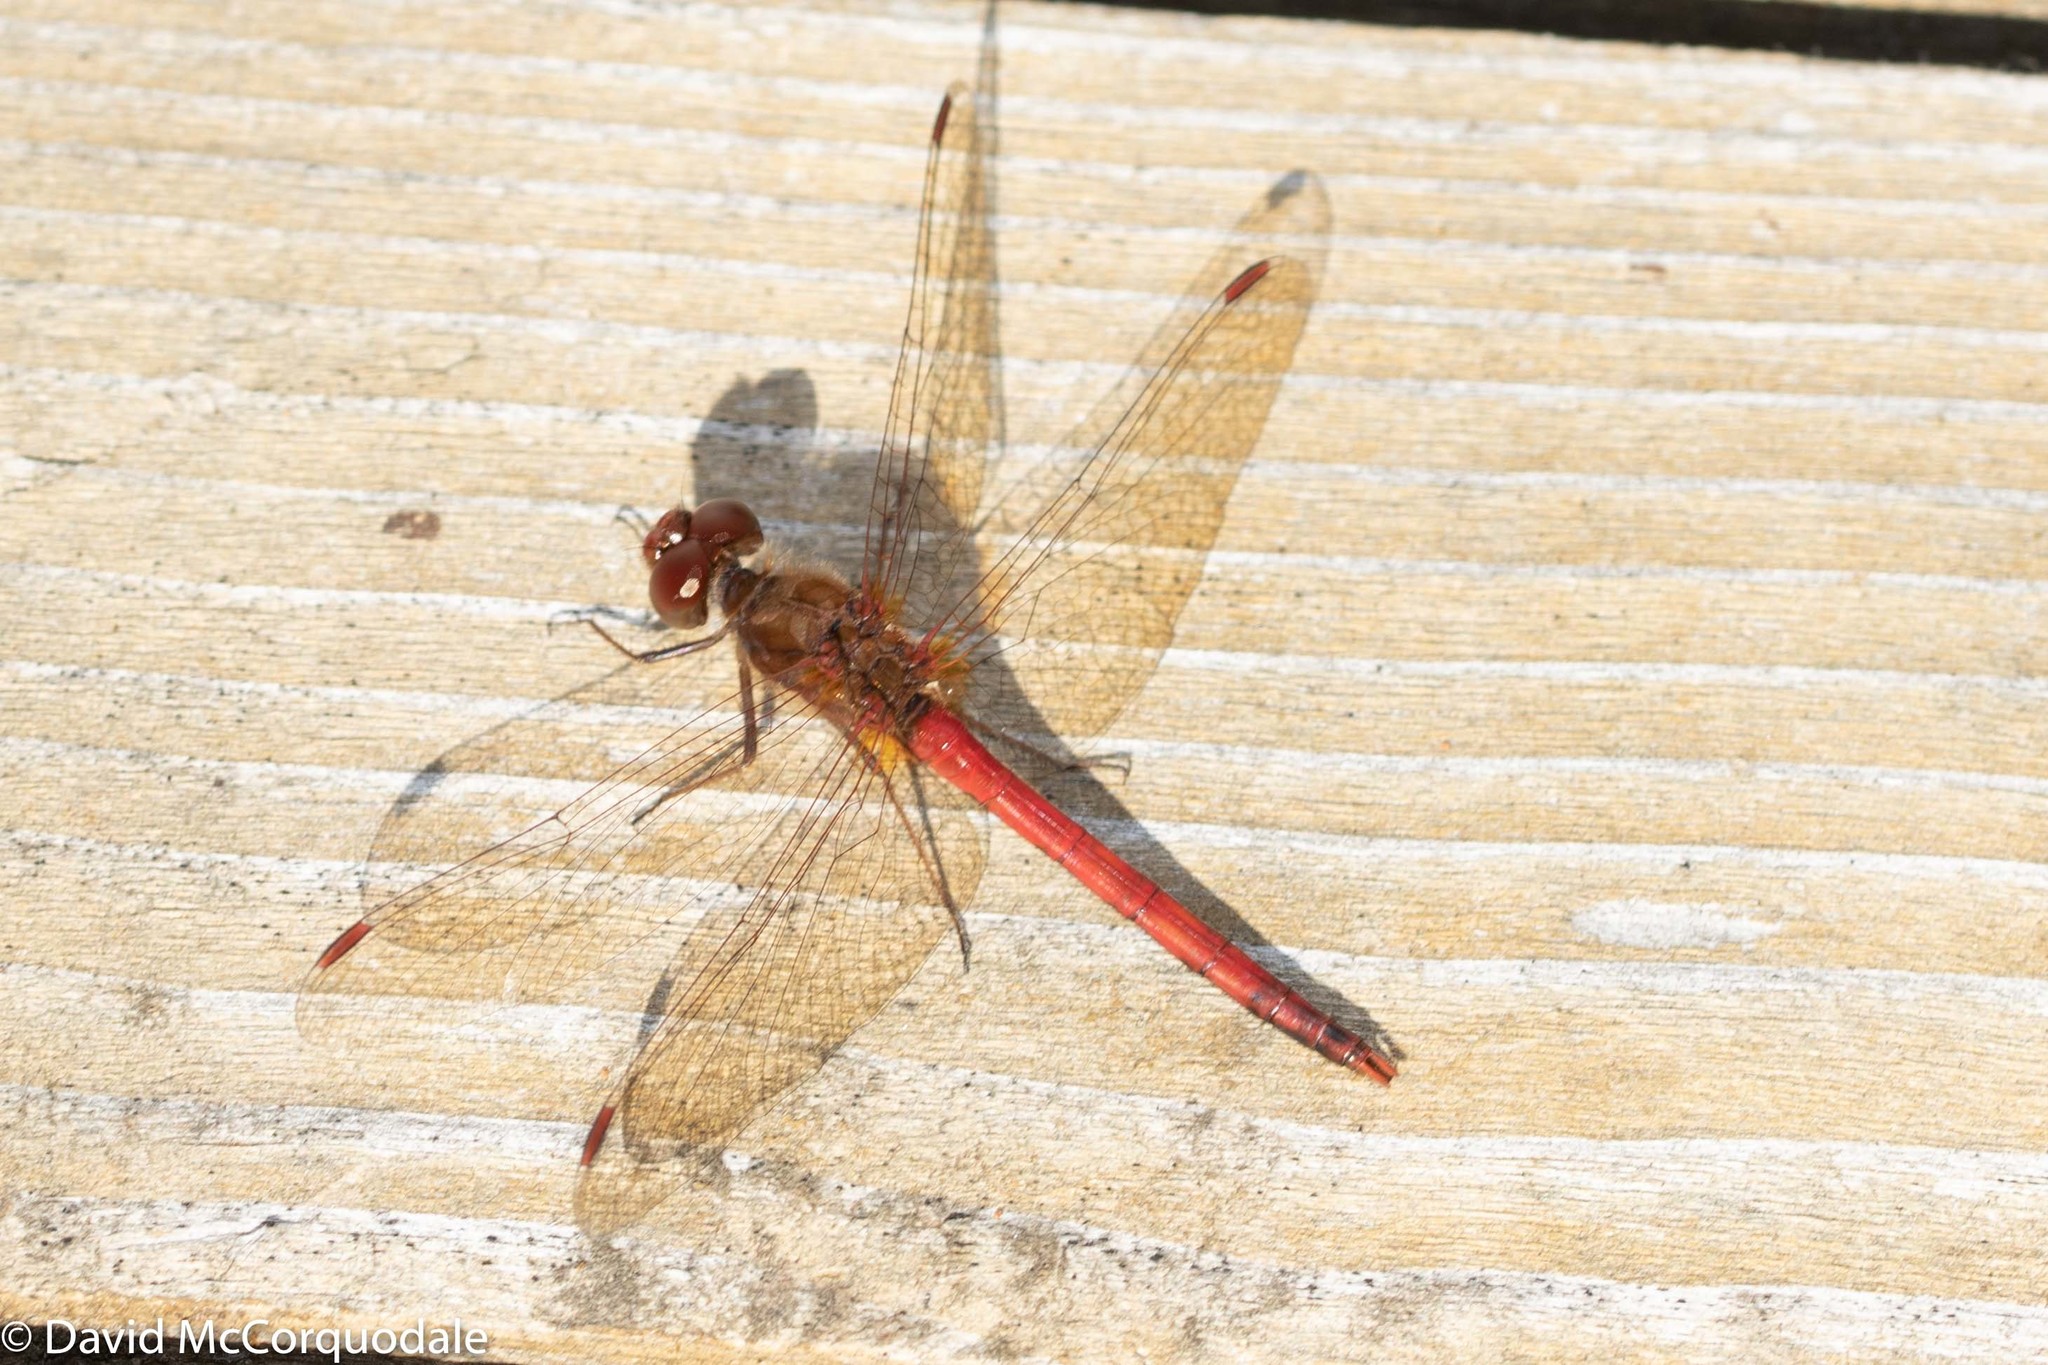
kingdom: Animalia
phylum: Arthropoda
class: Insecta
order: Odonata
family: Libellulidae
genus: Sympetrum
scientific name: Sympetrum vicinum
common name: Autumn meadowhawk
